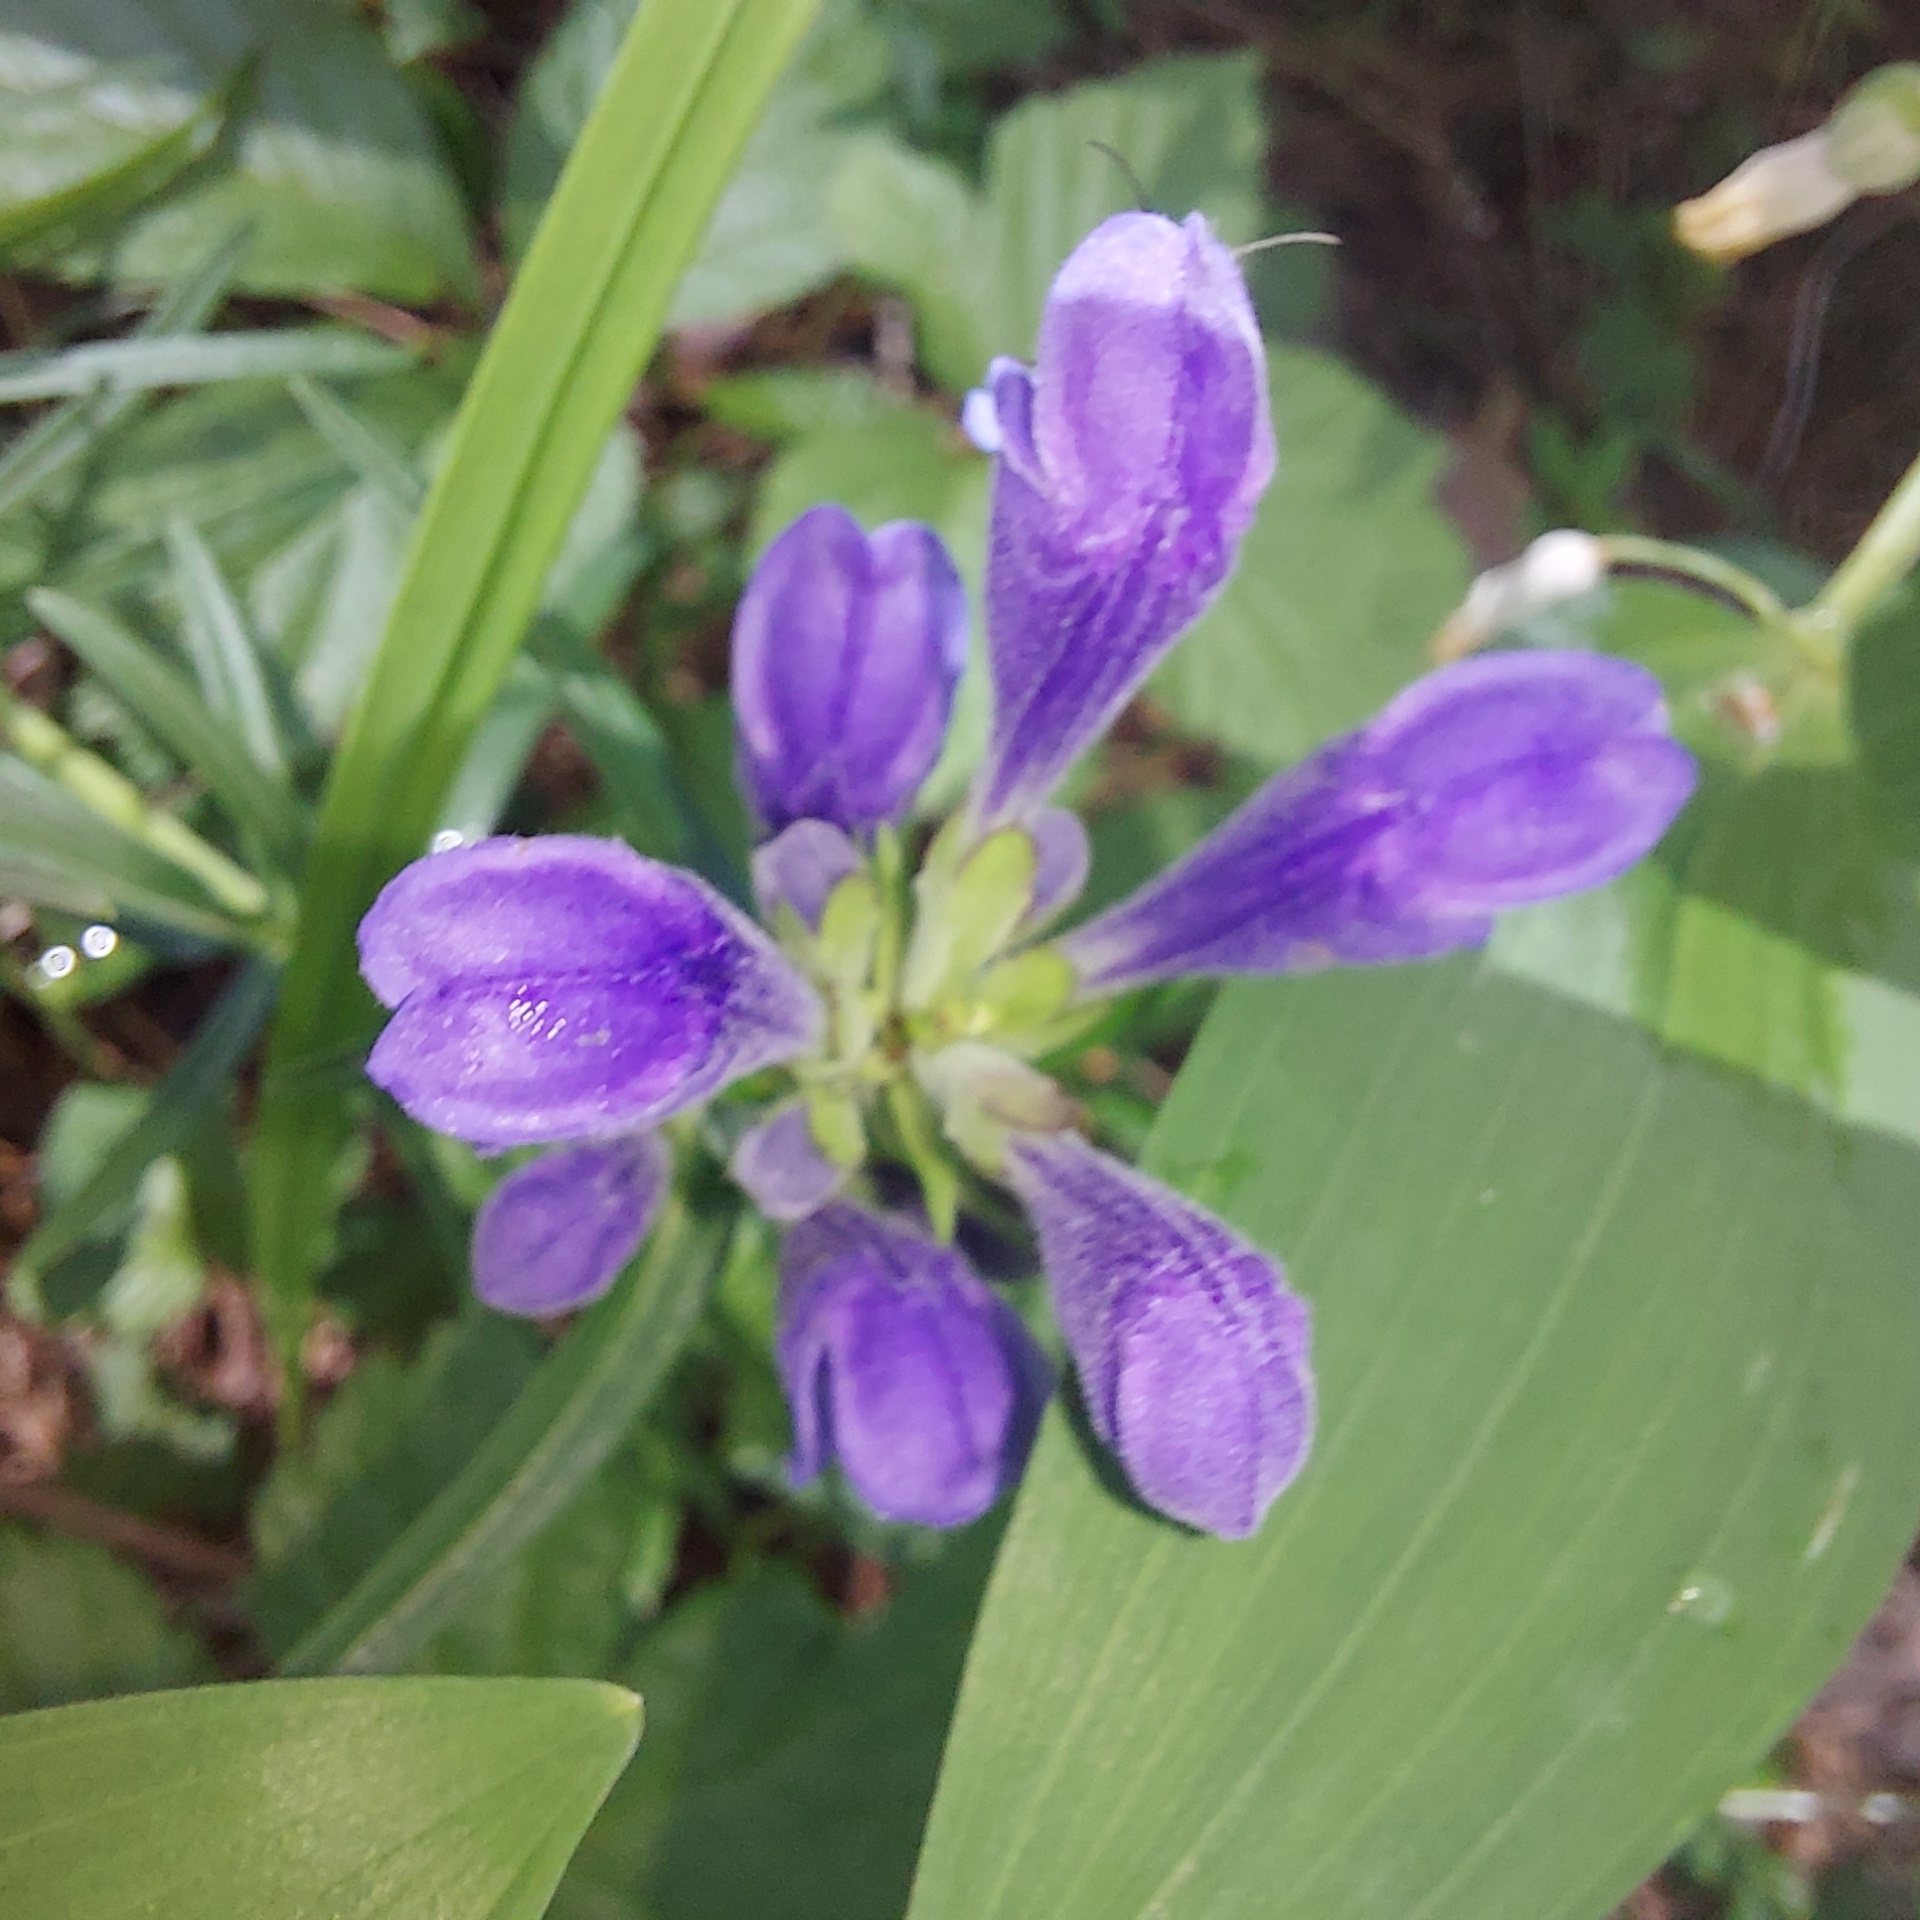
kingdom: Plantae
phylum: Tracheophyta
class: Magnoliopsida
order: Lamiales
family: Lamiaceae
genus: Dracocephalum
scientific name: Dracocephalum ruyschiana
